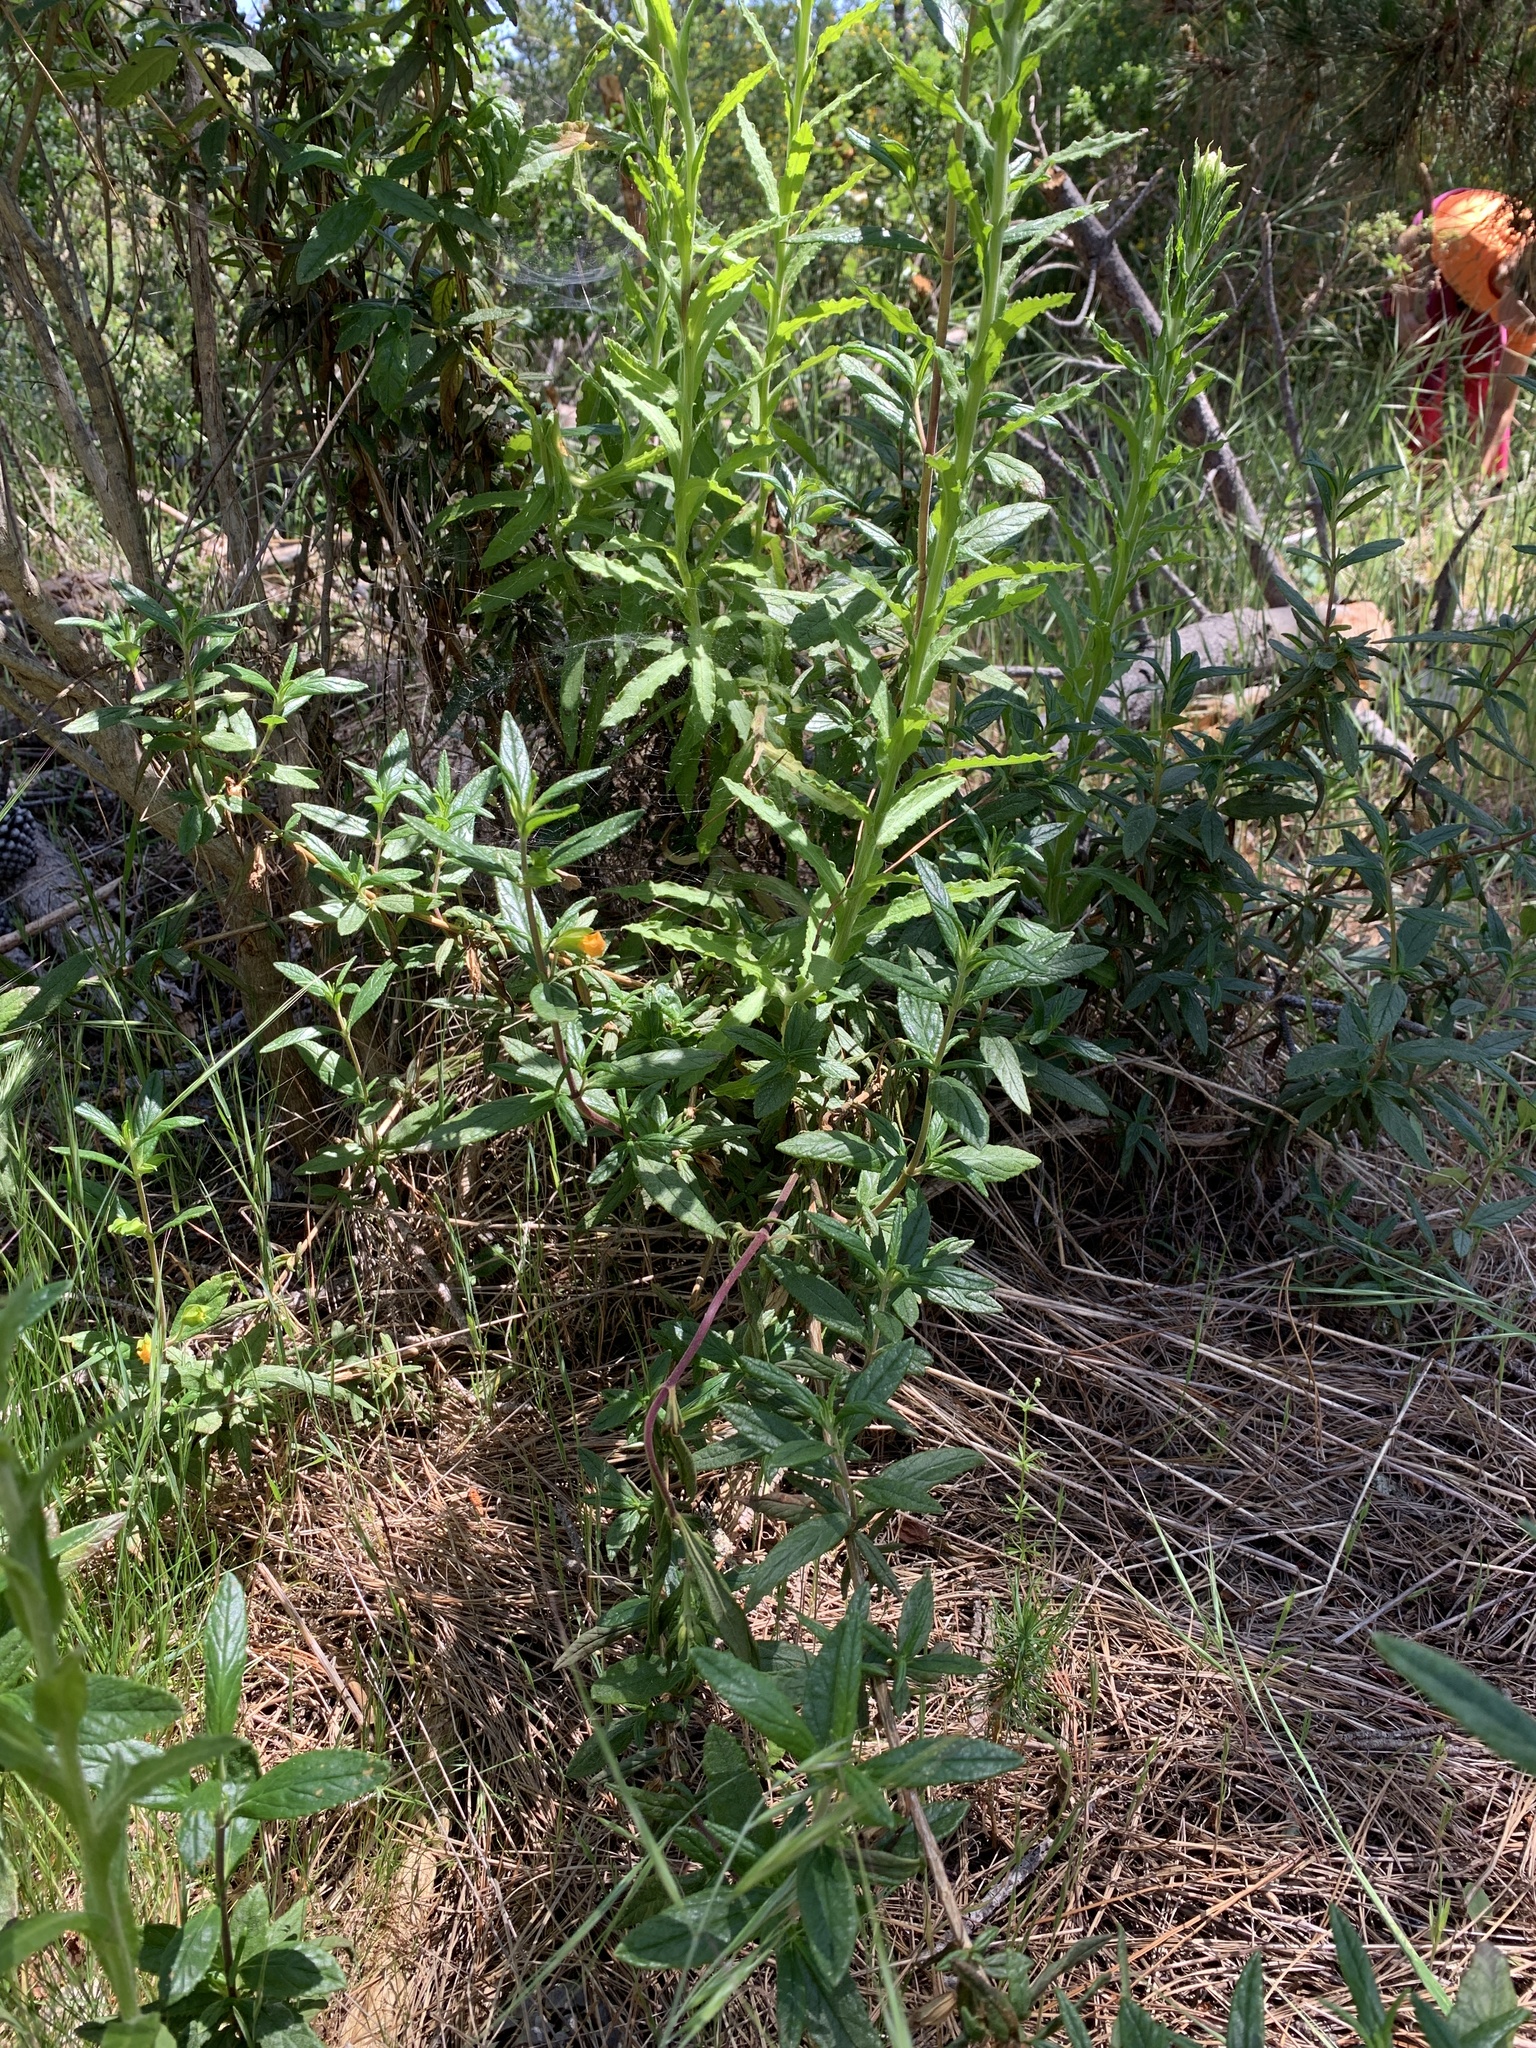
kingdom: Plantae
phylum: Tracheophyta
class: Magnoliopsida
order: Lamiales
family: Phrymaceae
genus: Diplacus
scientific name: Diplacus aurantiacus
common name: Bush monkey-flower
